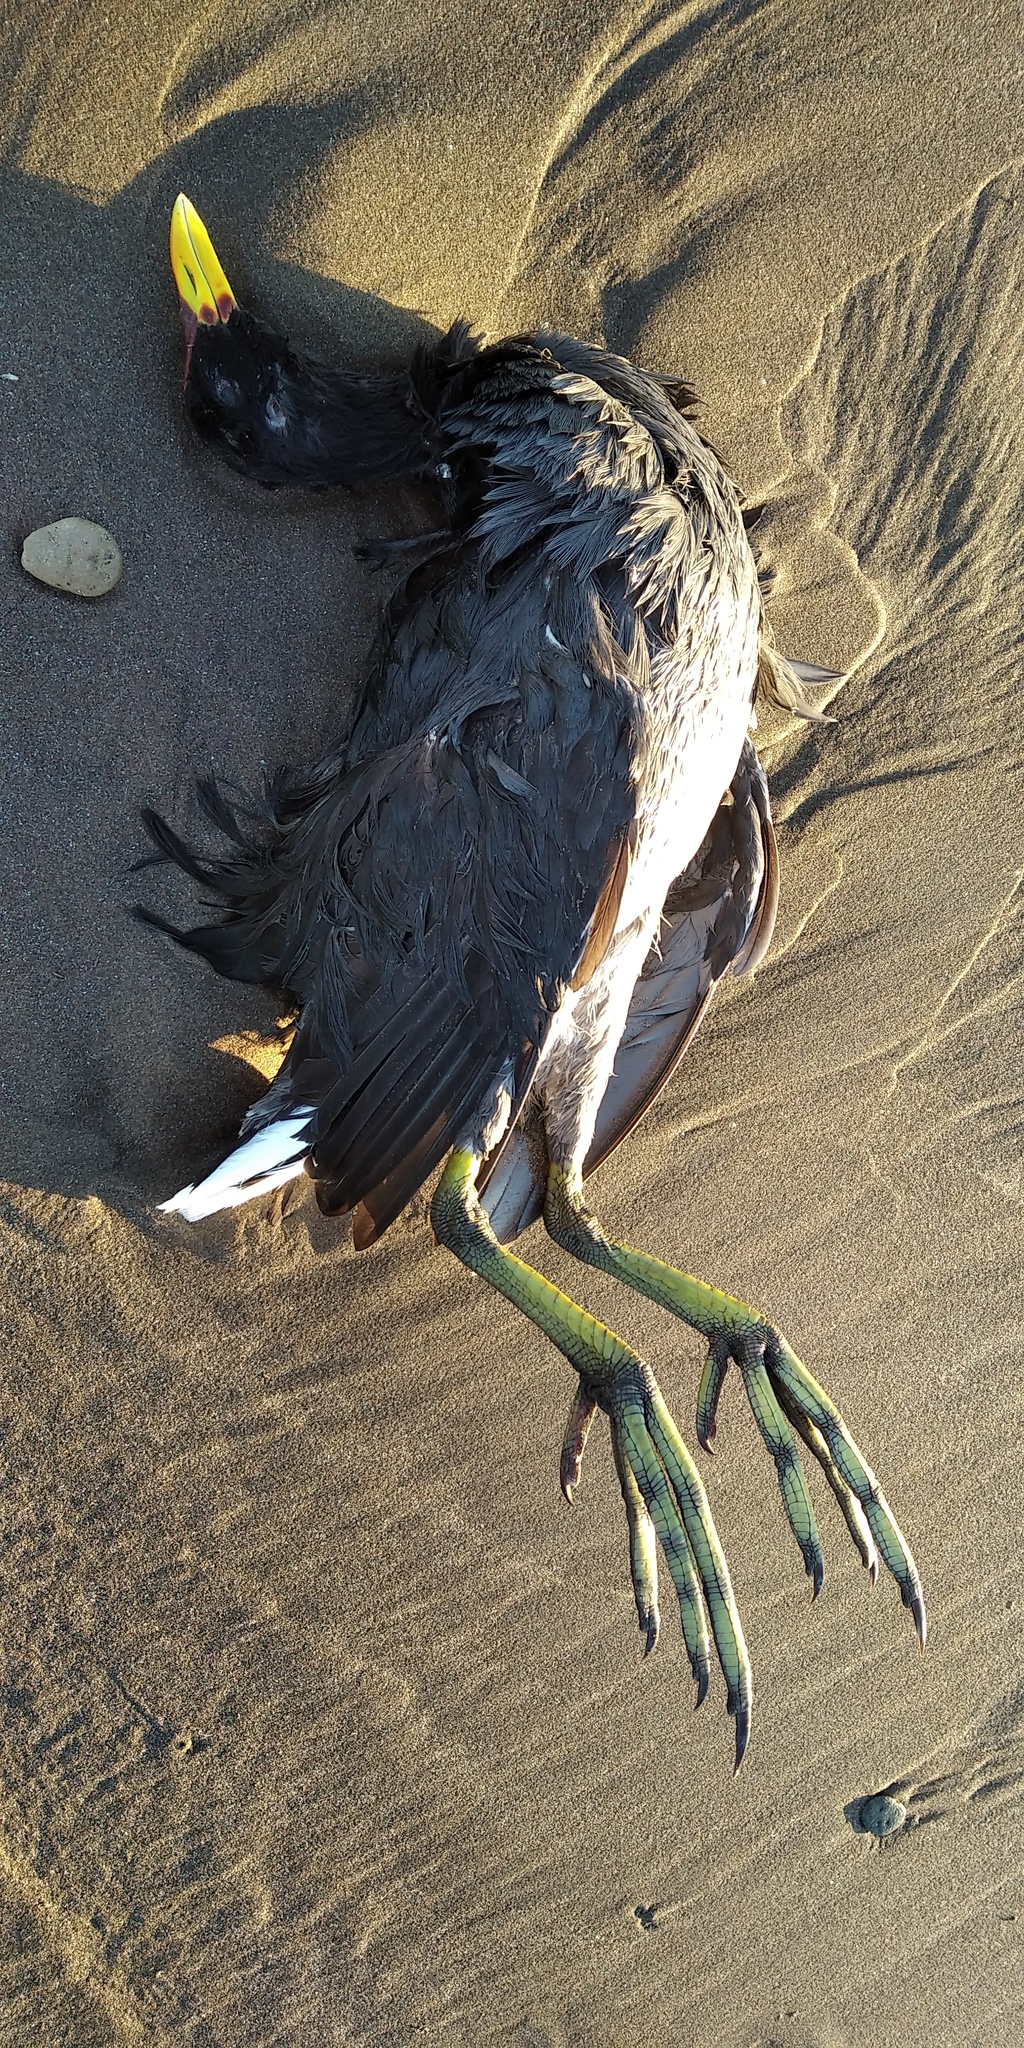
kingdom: Animalia
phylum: Chordata
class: Aves
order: Gruiformes
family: Rallidae
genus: Fulica
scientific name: Fulica rufifrons
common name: Red-fronted coot
